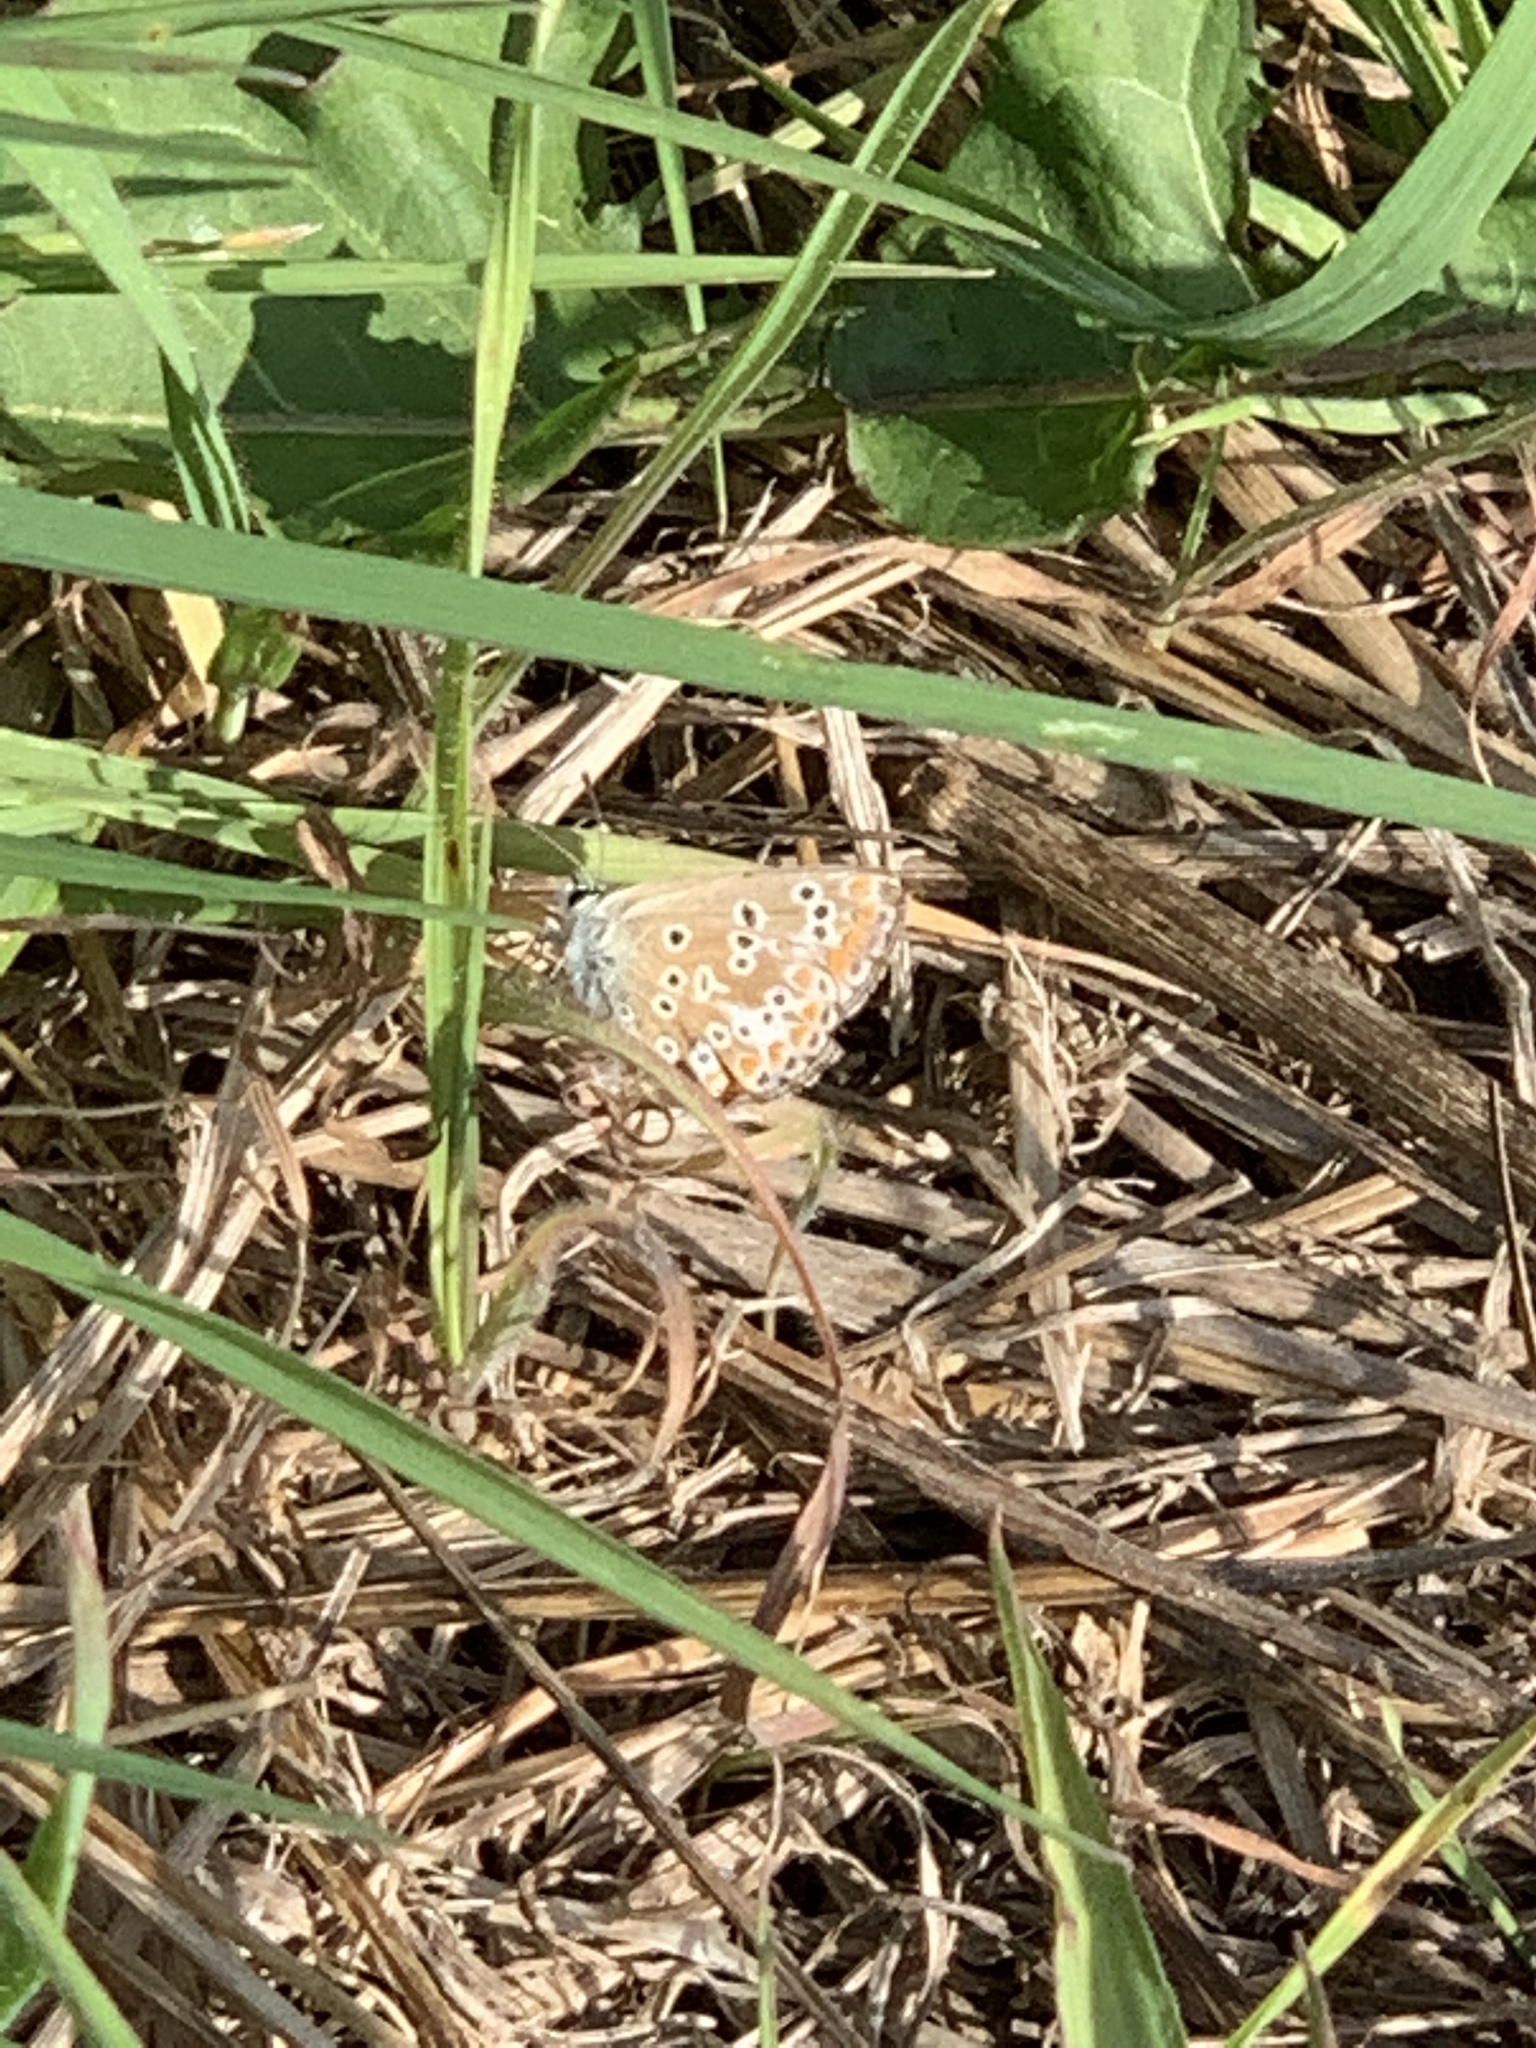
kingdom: Animalia
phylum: Arthropoda
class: Insecta
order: Lepidoptera
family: Lycaenidae
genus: Aricia
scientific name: Aricia agestis
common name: Brown argus
